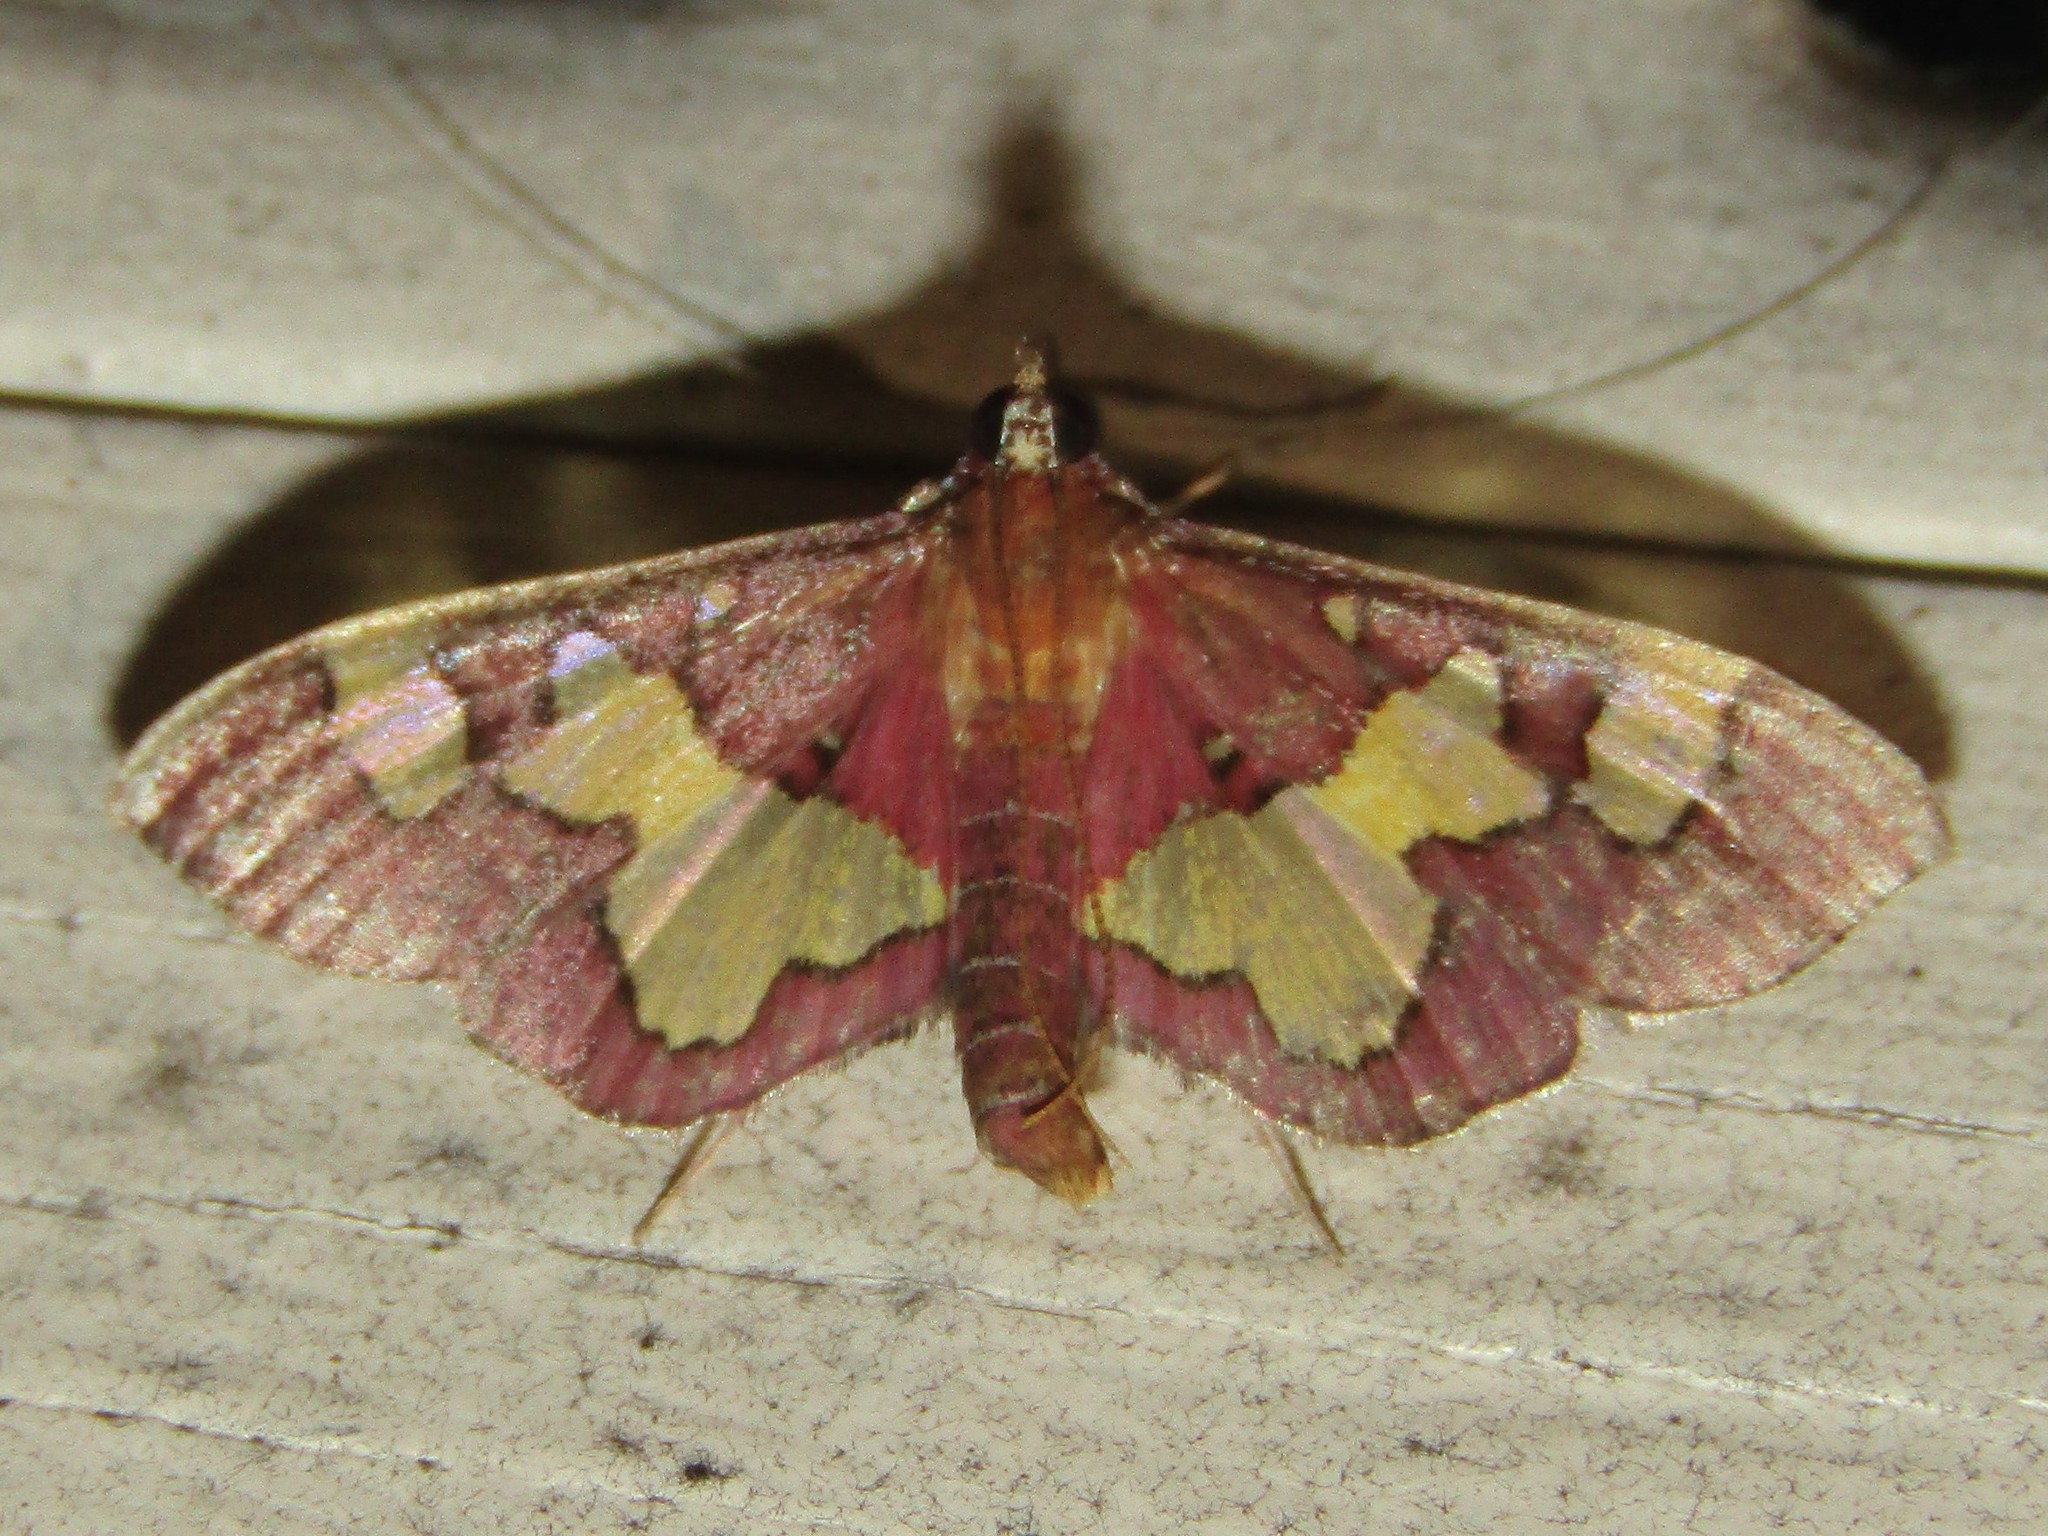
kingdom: Animalia
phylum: Arthropoda
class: Insecta
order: Lepidoptera
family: Crambidae
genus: Colomychus
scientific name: Colomychus talis
